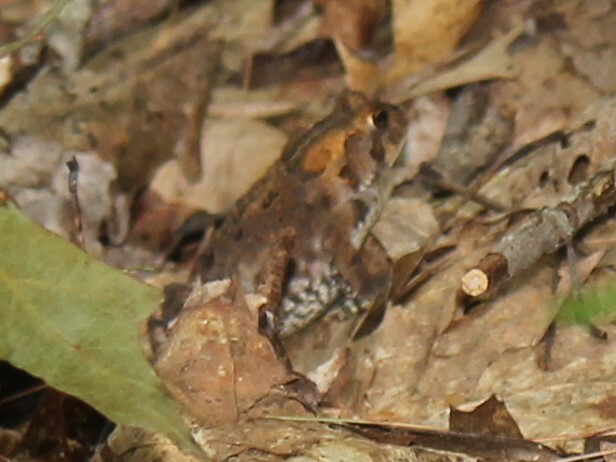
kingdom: Animalia
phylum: Chordata
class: Amphibia
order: Anura
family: Bufonidae
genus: Anaxyrus
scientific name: Anaxyrus americanus
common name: American toad
